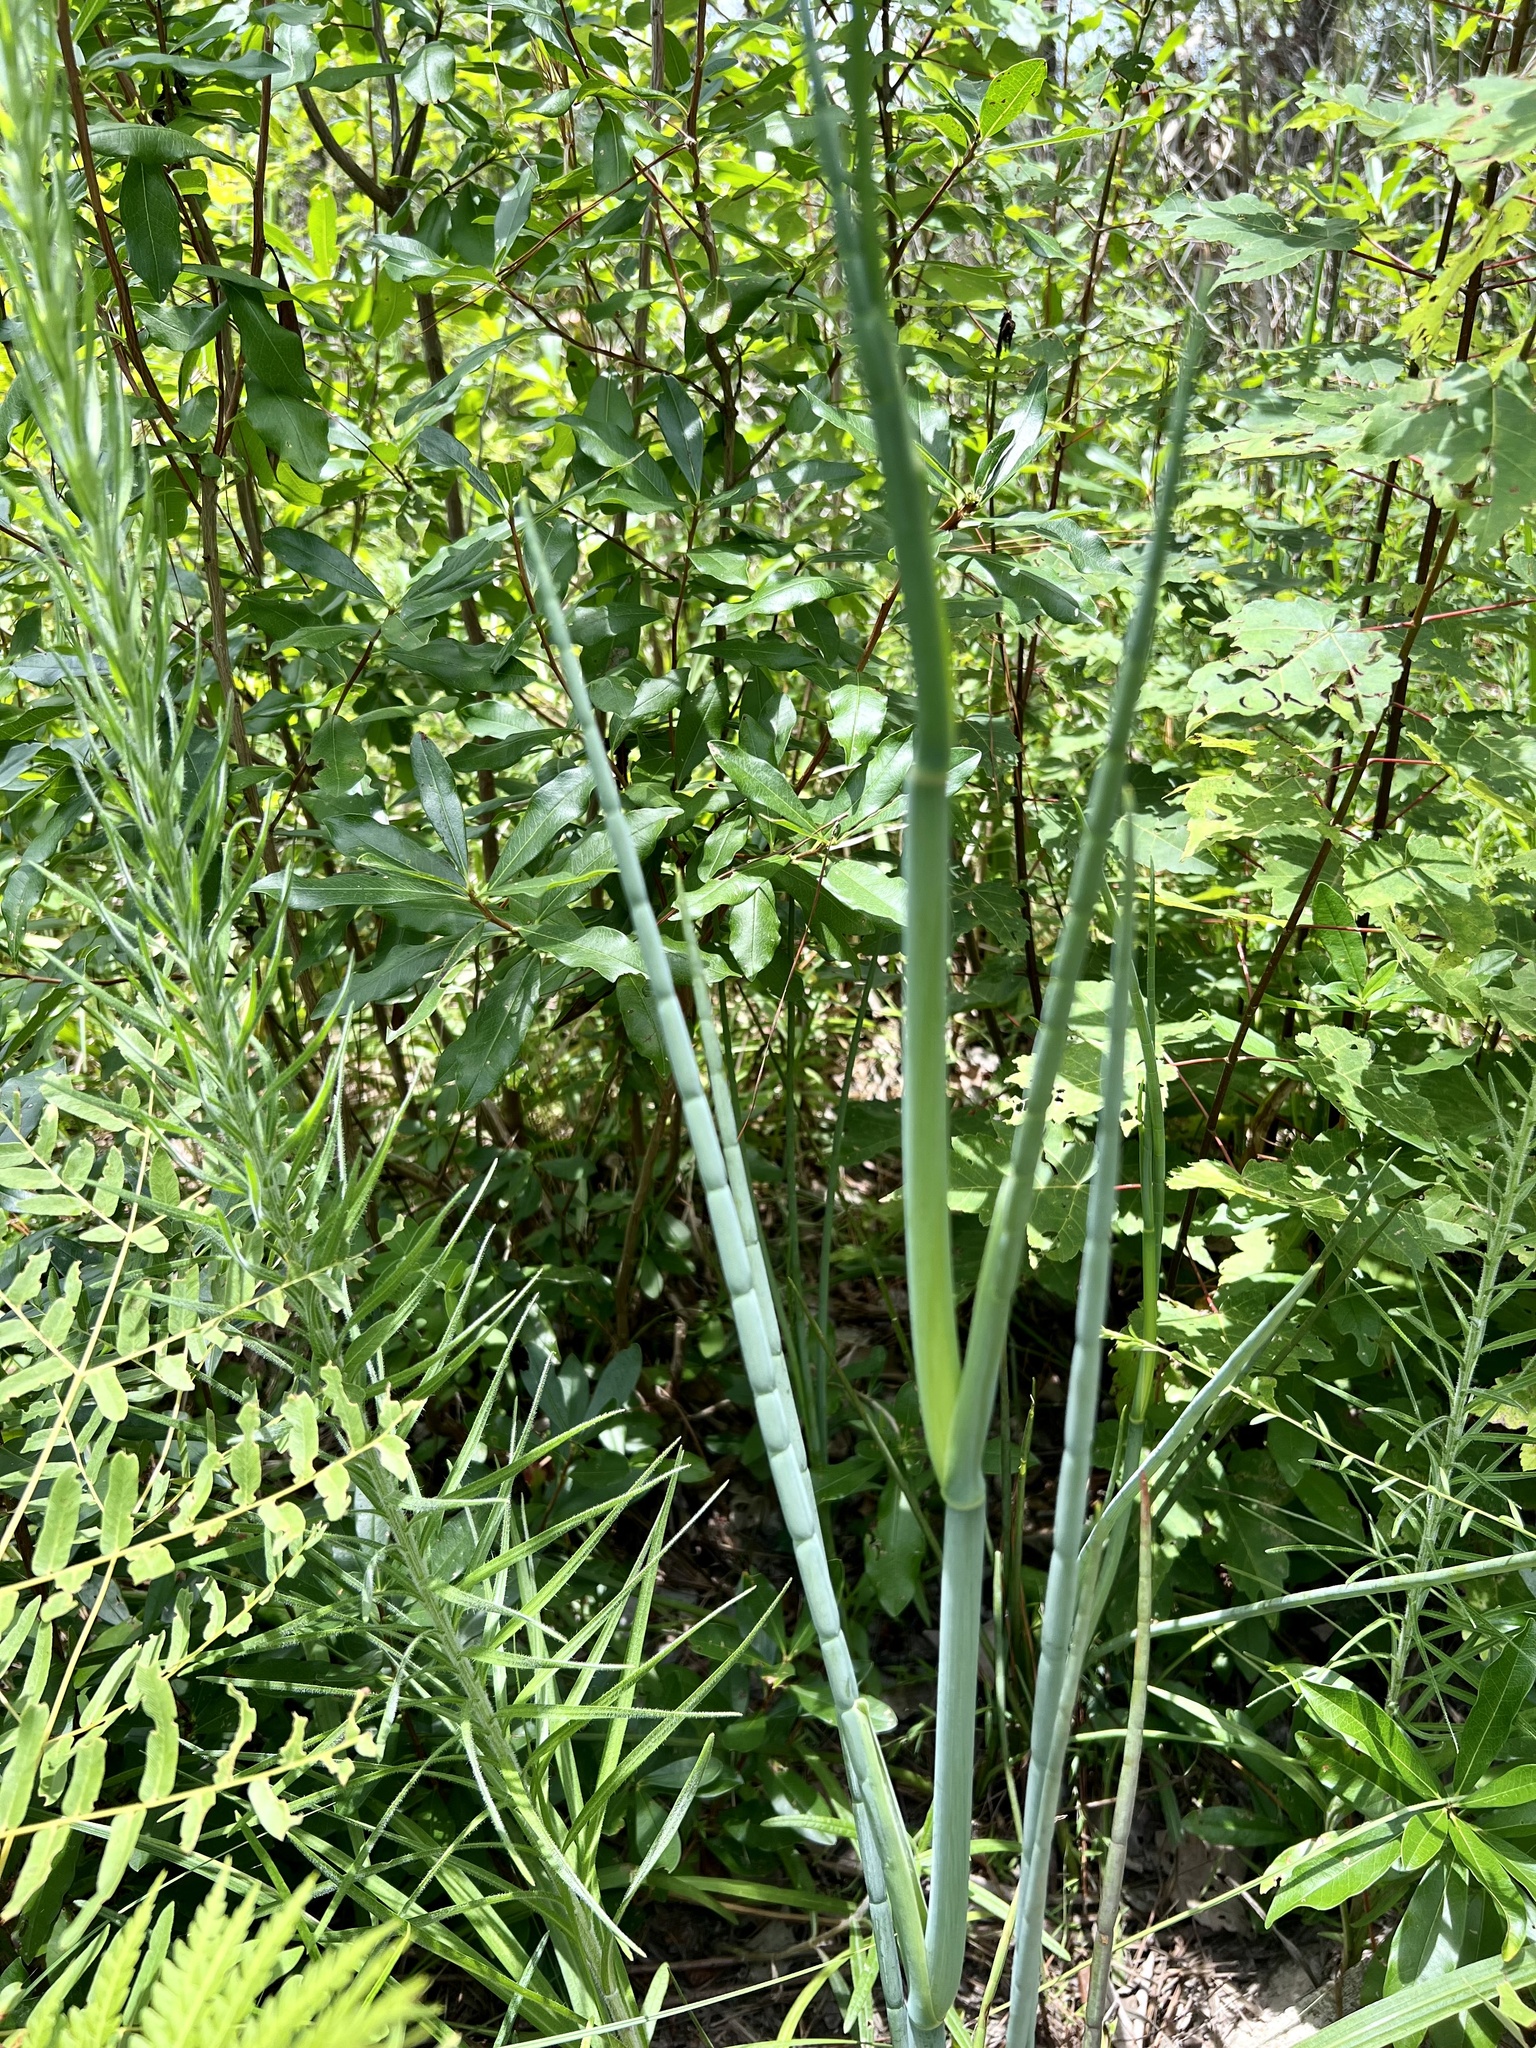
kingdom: Plantae
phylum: Tracheophyta
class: Magnoliopsida
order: Apiales
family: Apiaceae
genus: Tiedemannia
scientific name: Tiedemannia filiformis
